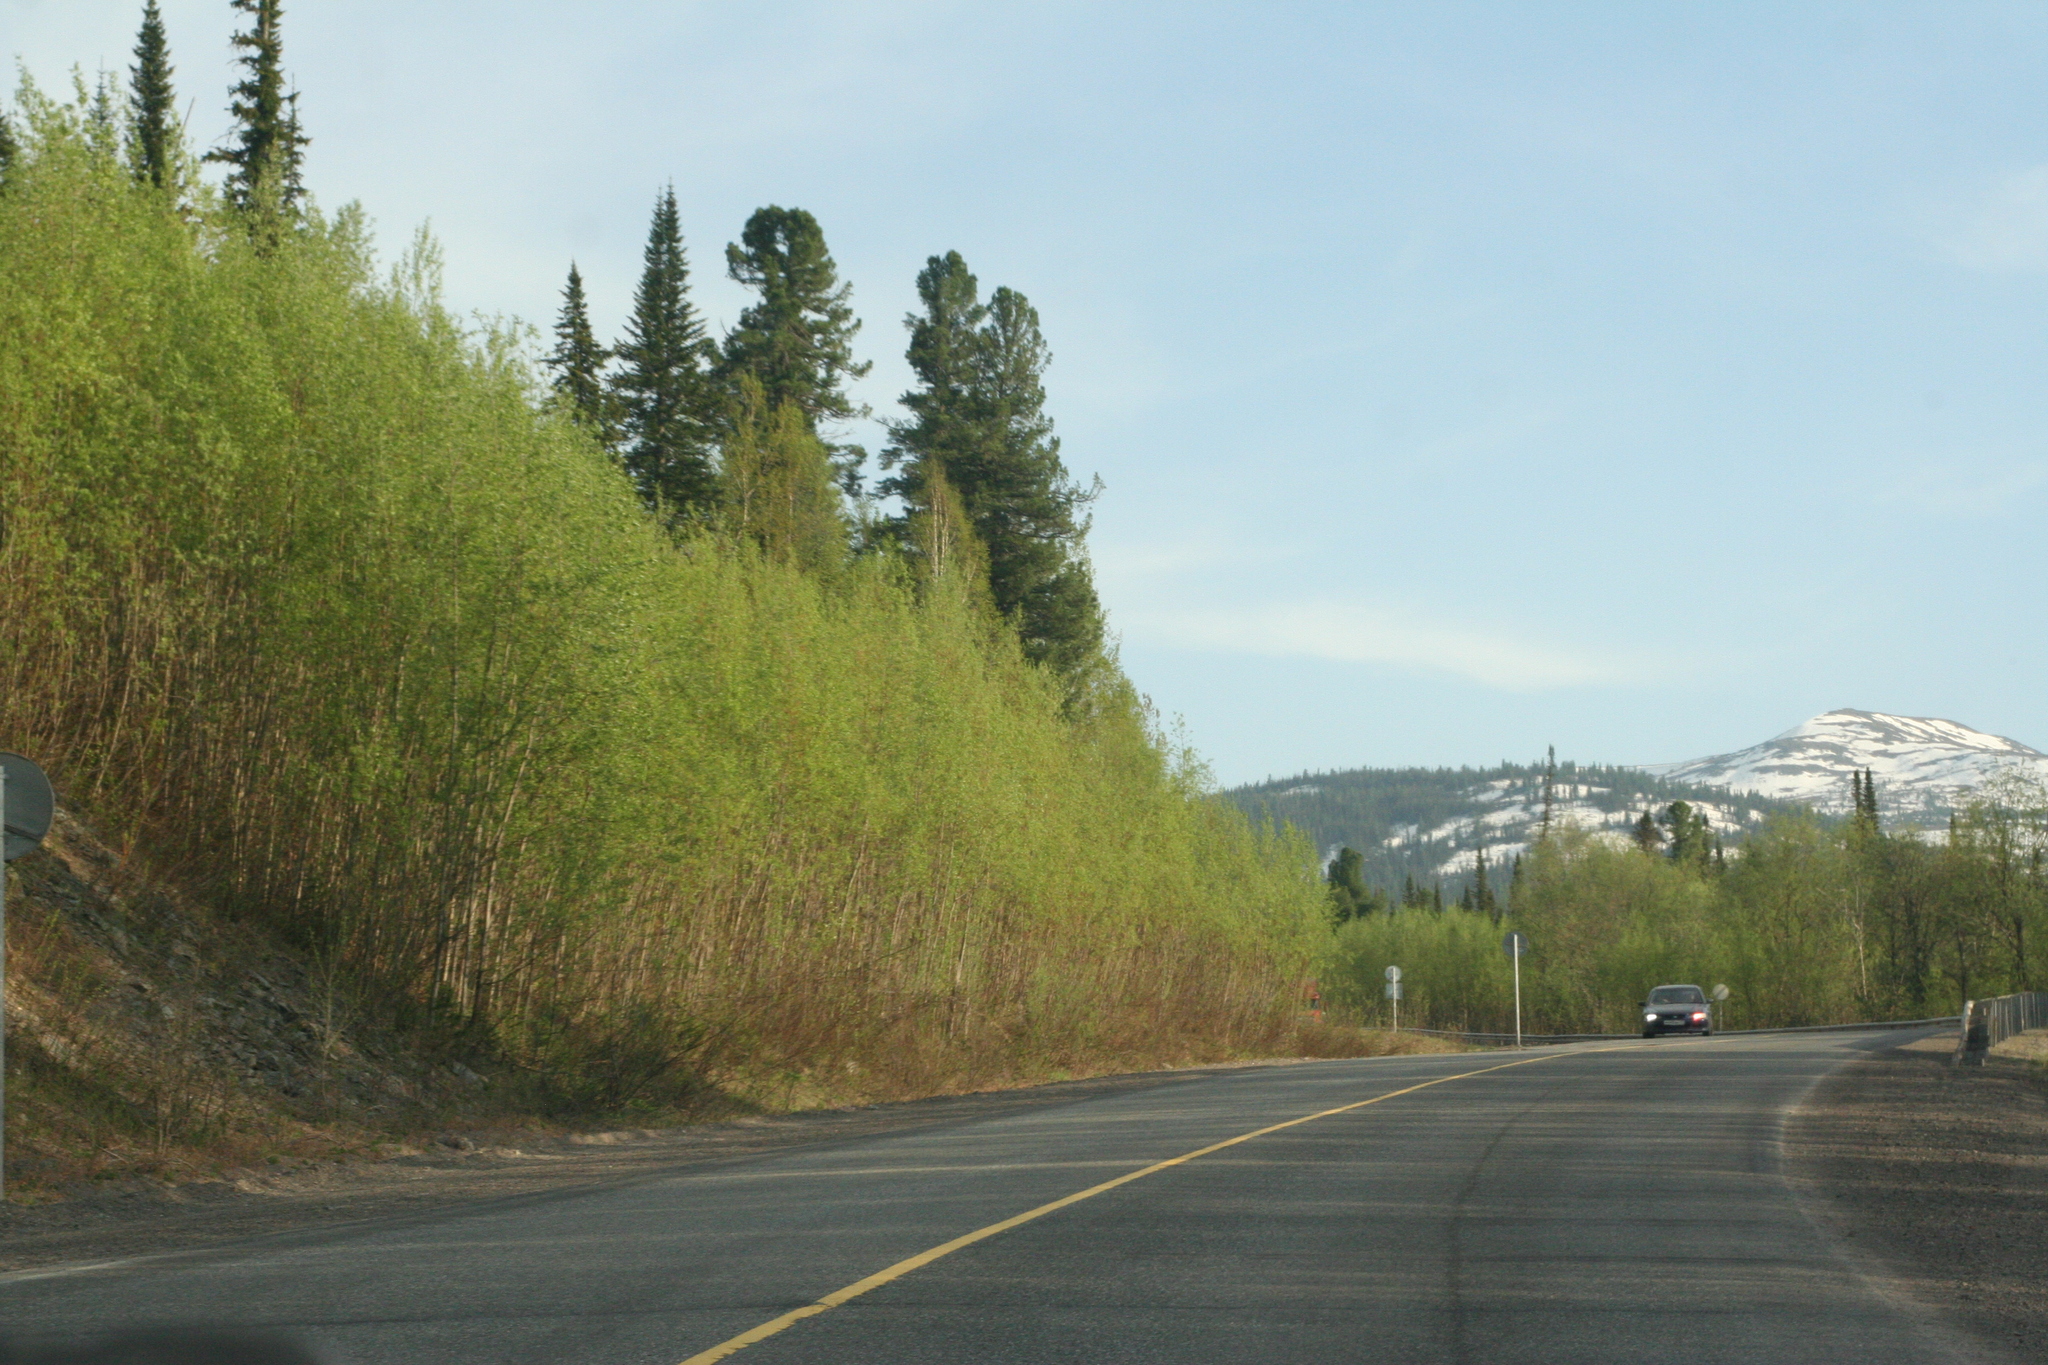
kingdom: Plantae
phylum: Tracheophyta
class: Pinopsida
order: Pinales
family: Pinaceae
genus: Pinus
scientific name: Pinus sibirica
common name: Siberian pine
